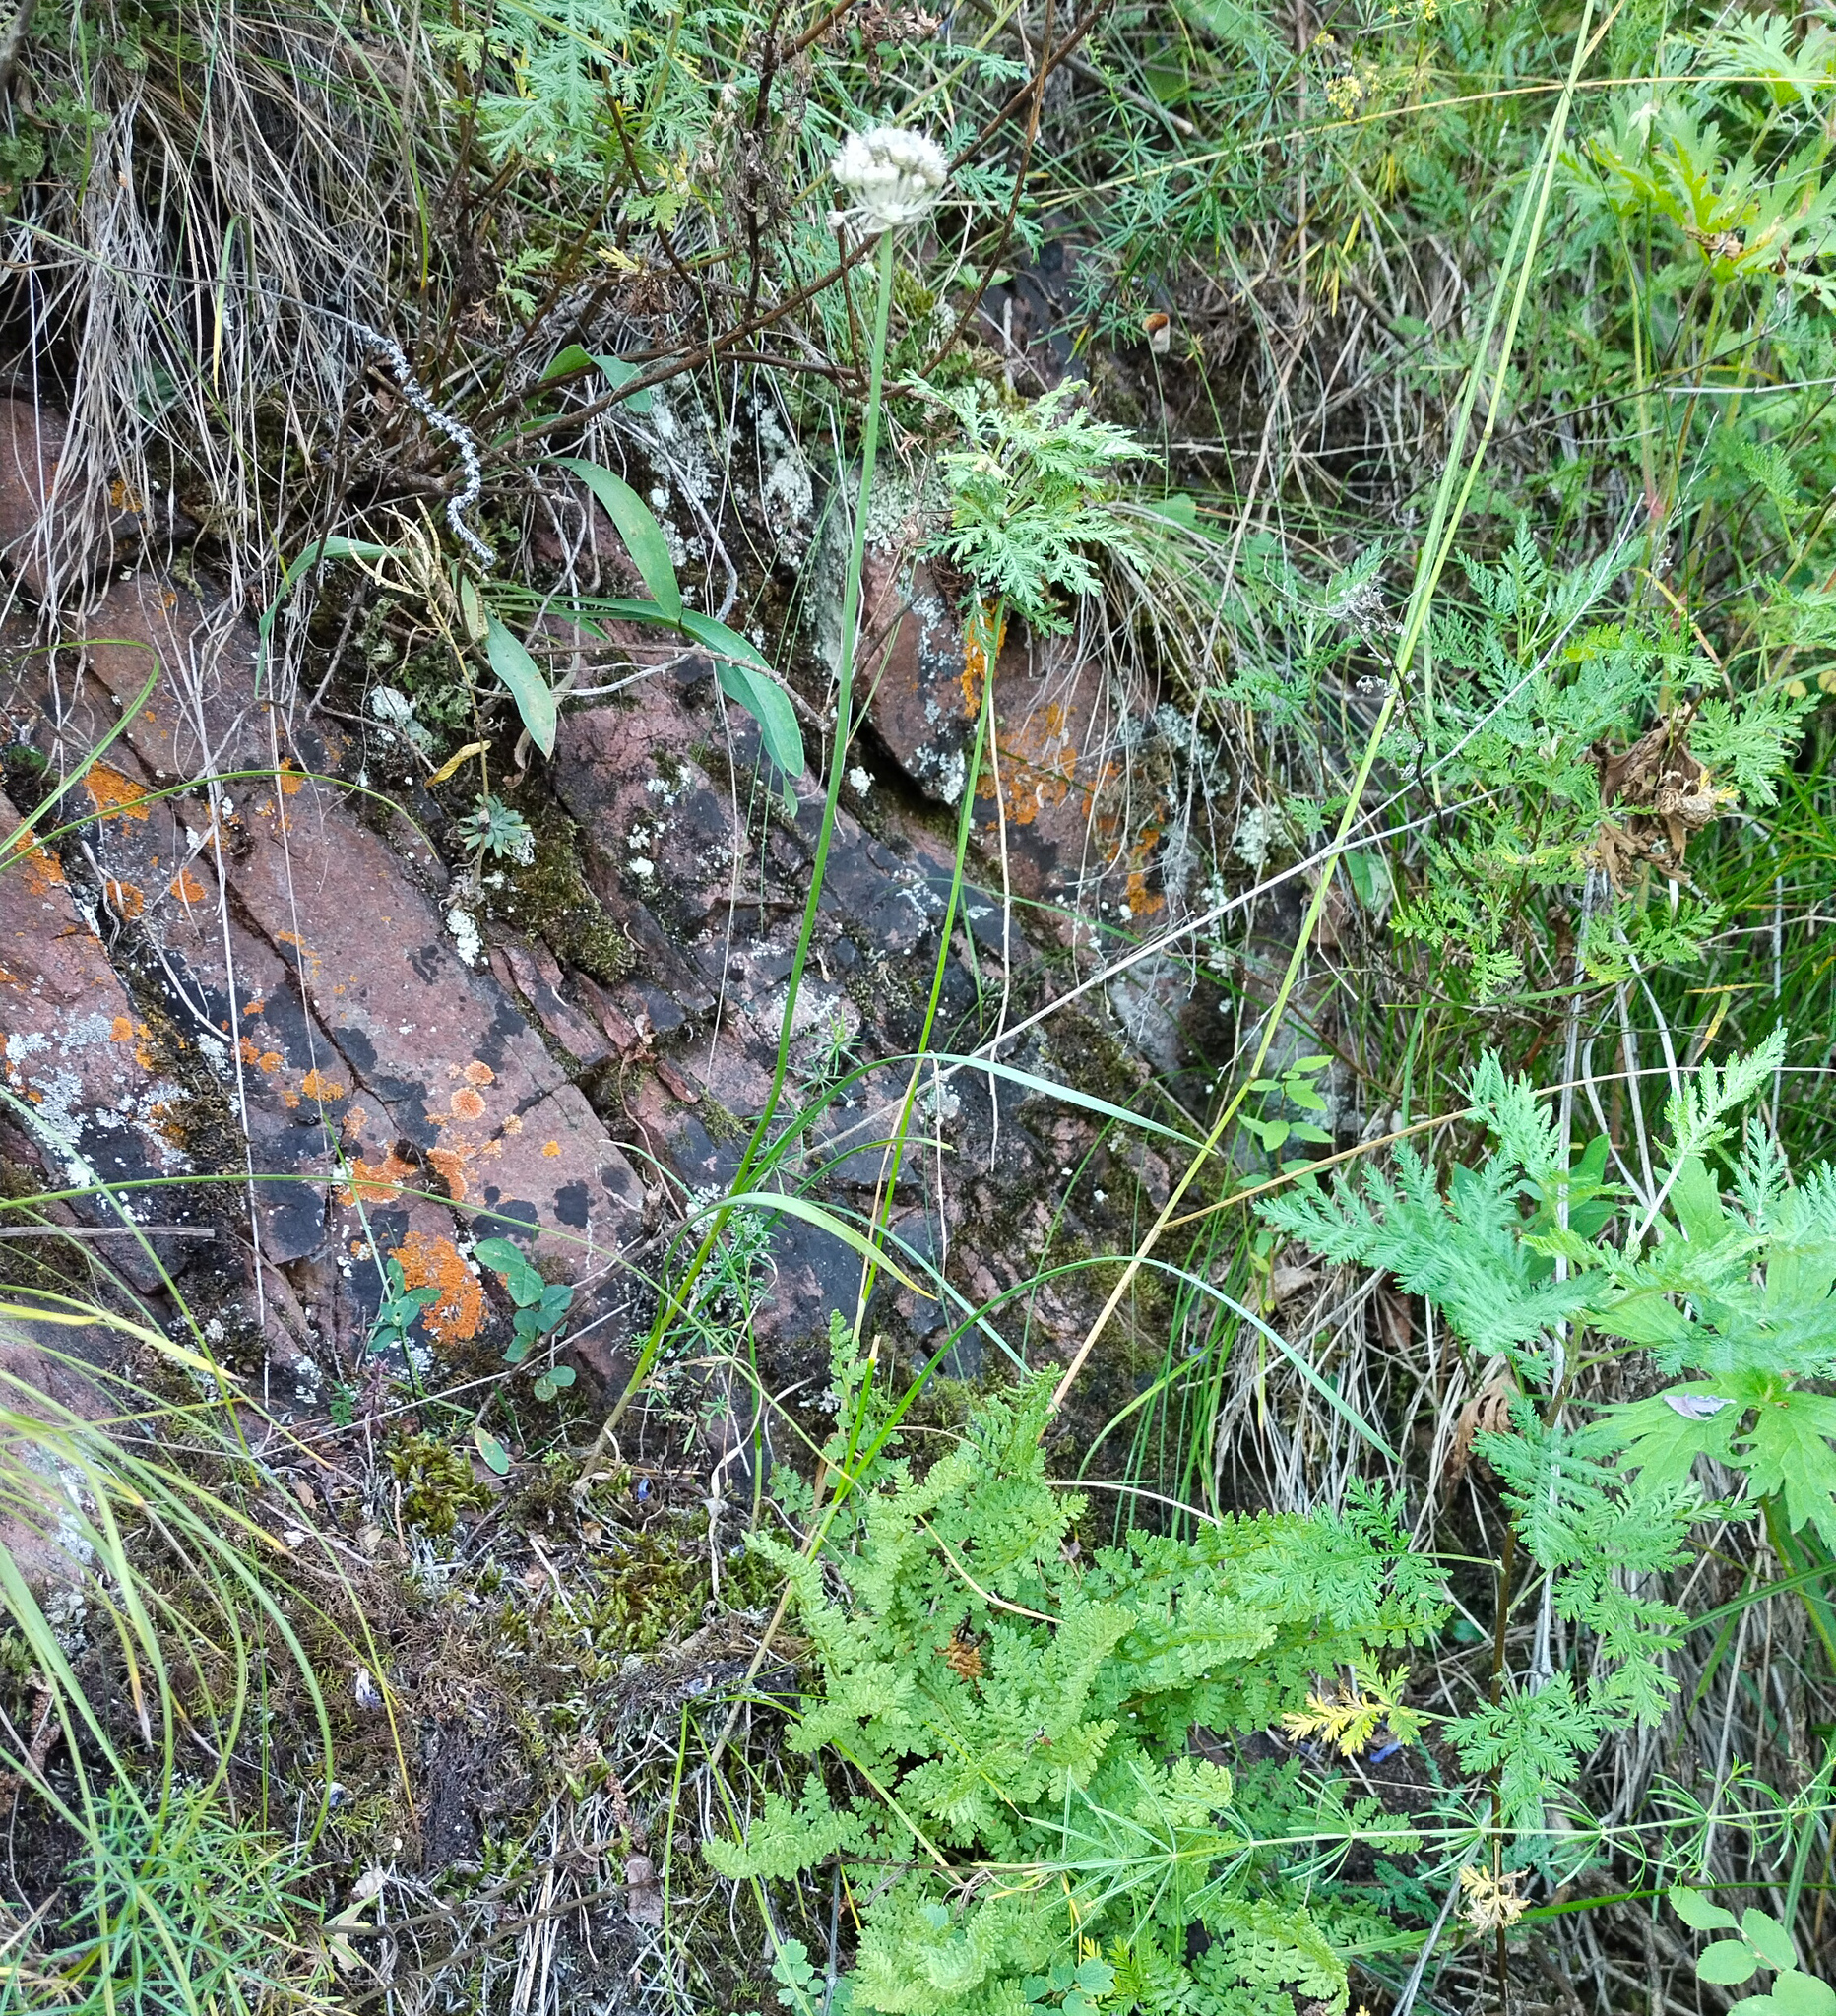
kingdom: Plantae
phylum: Tracheophyta
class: Liliopsida
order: Asparagales
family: Amaryllidaceae
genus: Allium
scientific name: Allium strictum
